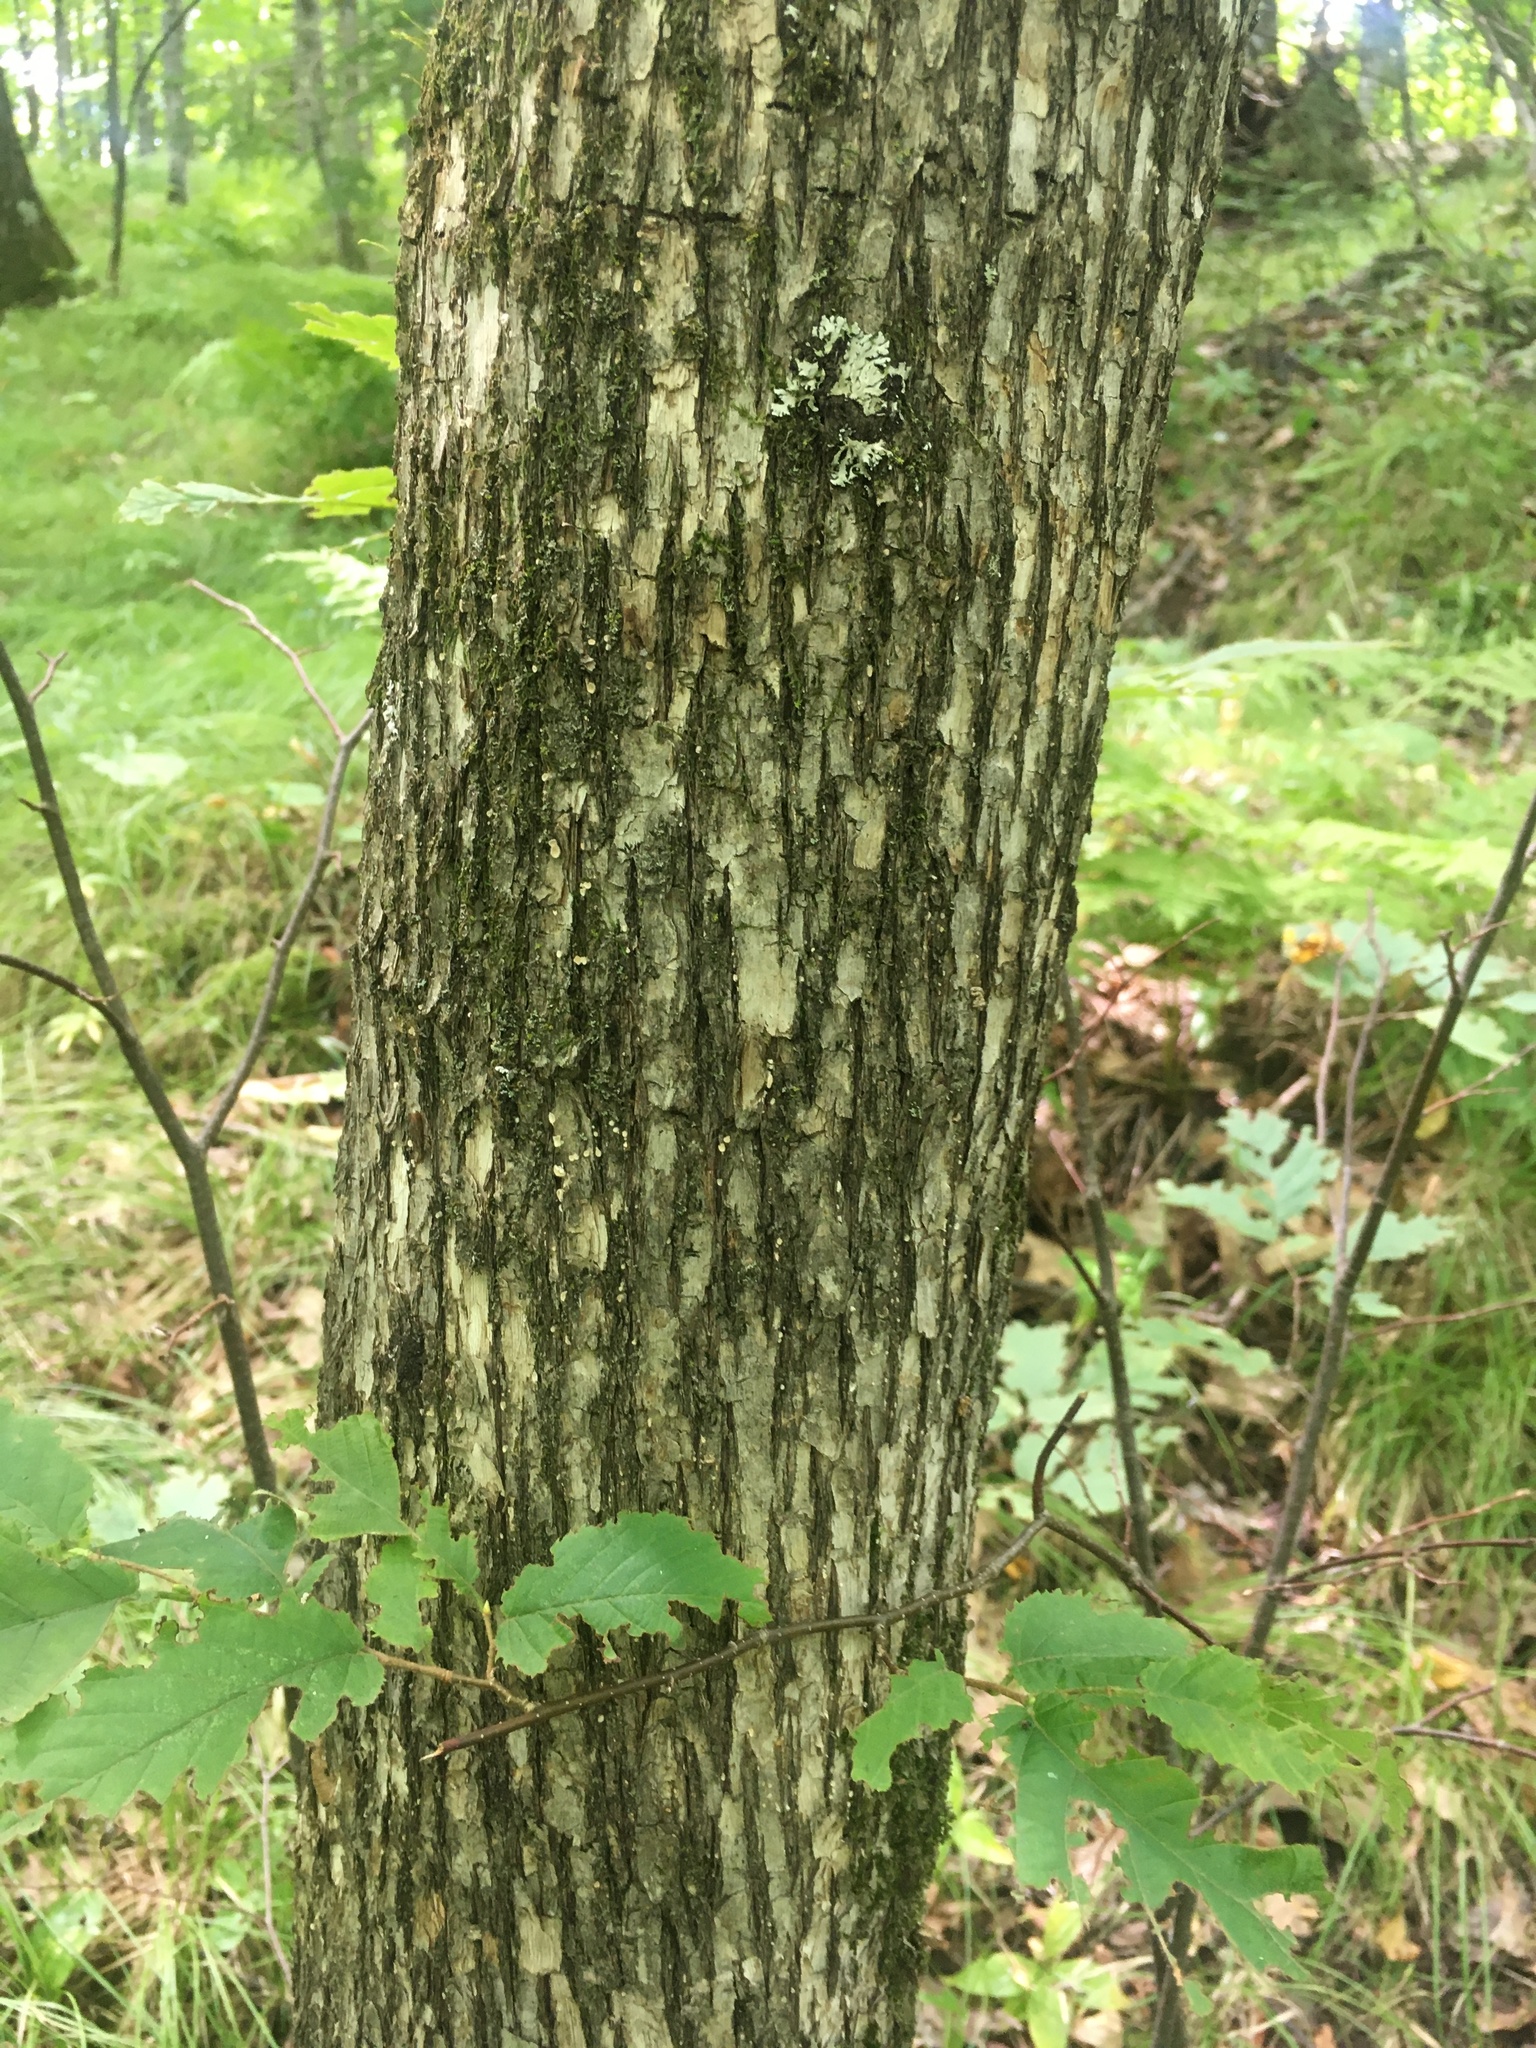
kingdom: Plantae
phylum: Tracheophyta
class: Magnoliopsida
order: Fagales
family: Betulaceae
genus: Ostrya
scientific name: Ostrya virginiana
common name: Ironwood
